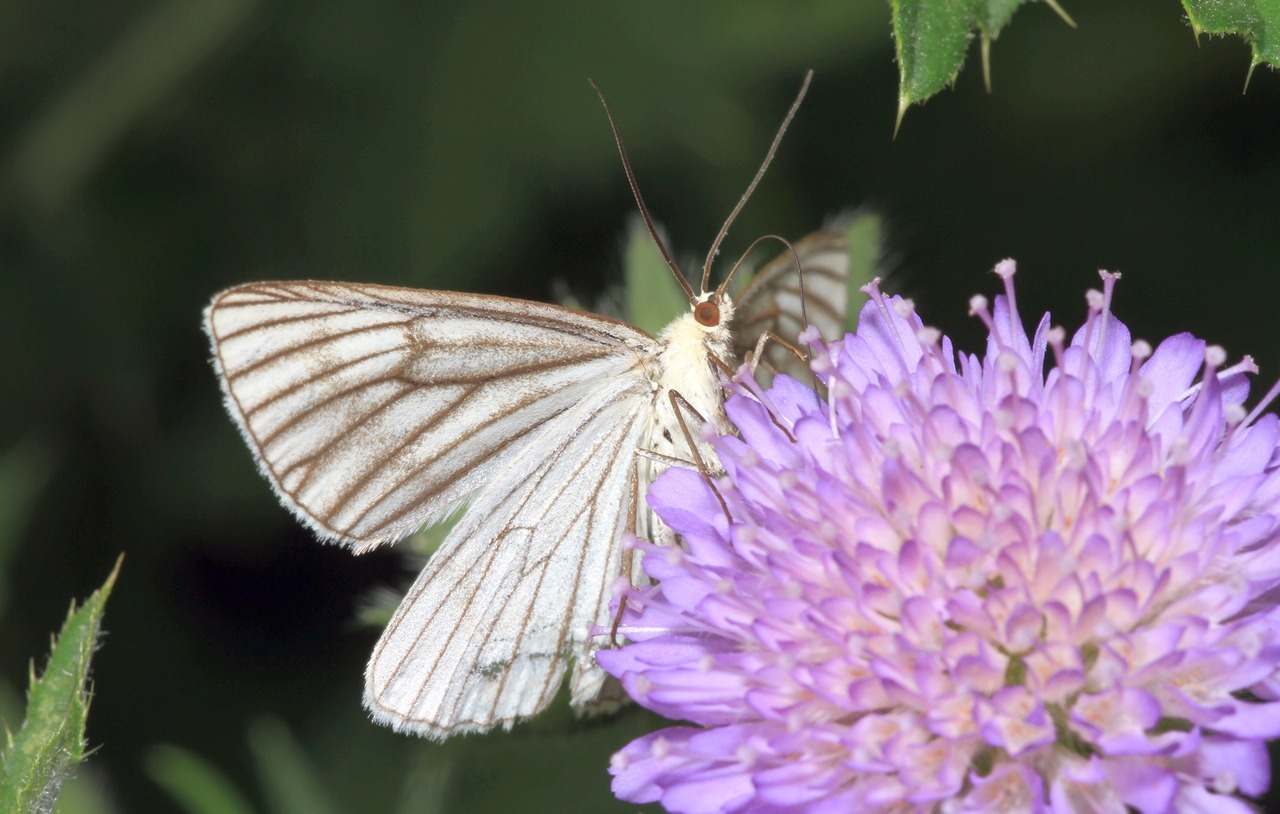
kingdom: Animalia
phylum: Arthropoda
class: Insecta
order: Lepidoptera
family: Geometridae
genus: Siona
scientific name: Siona lineata
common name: Black-veined moth
